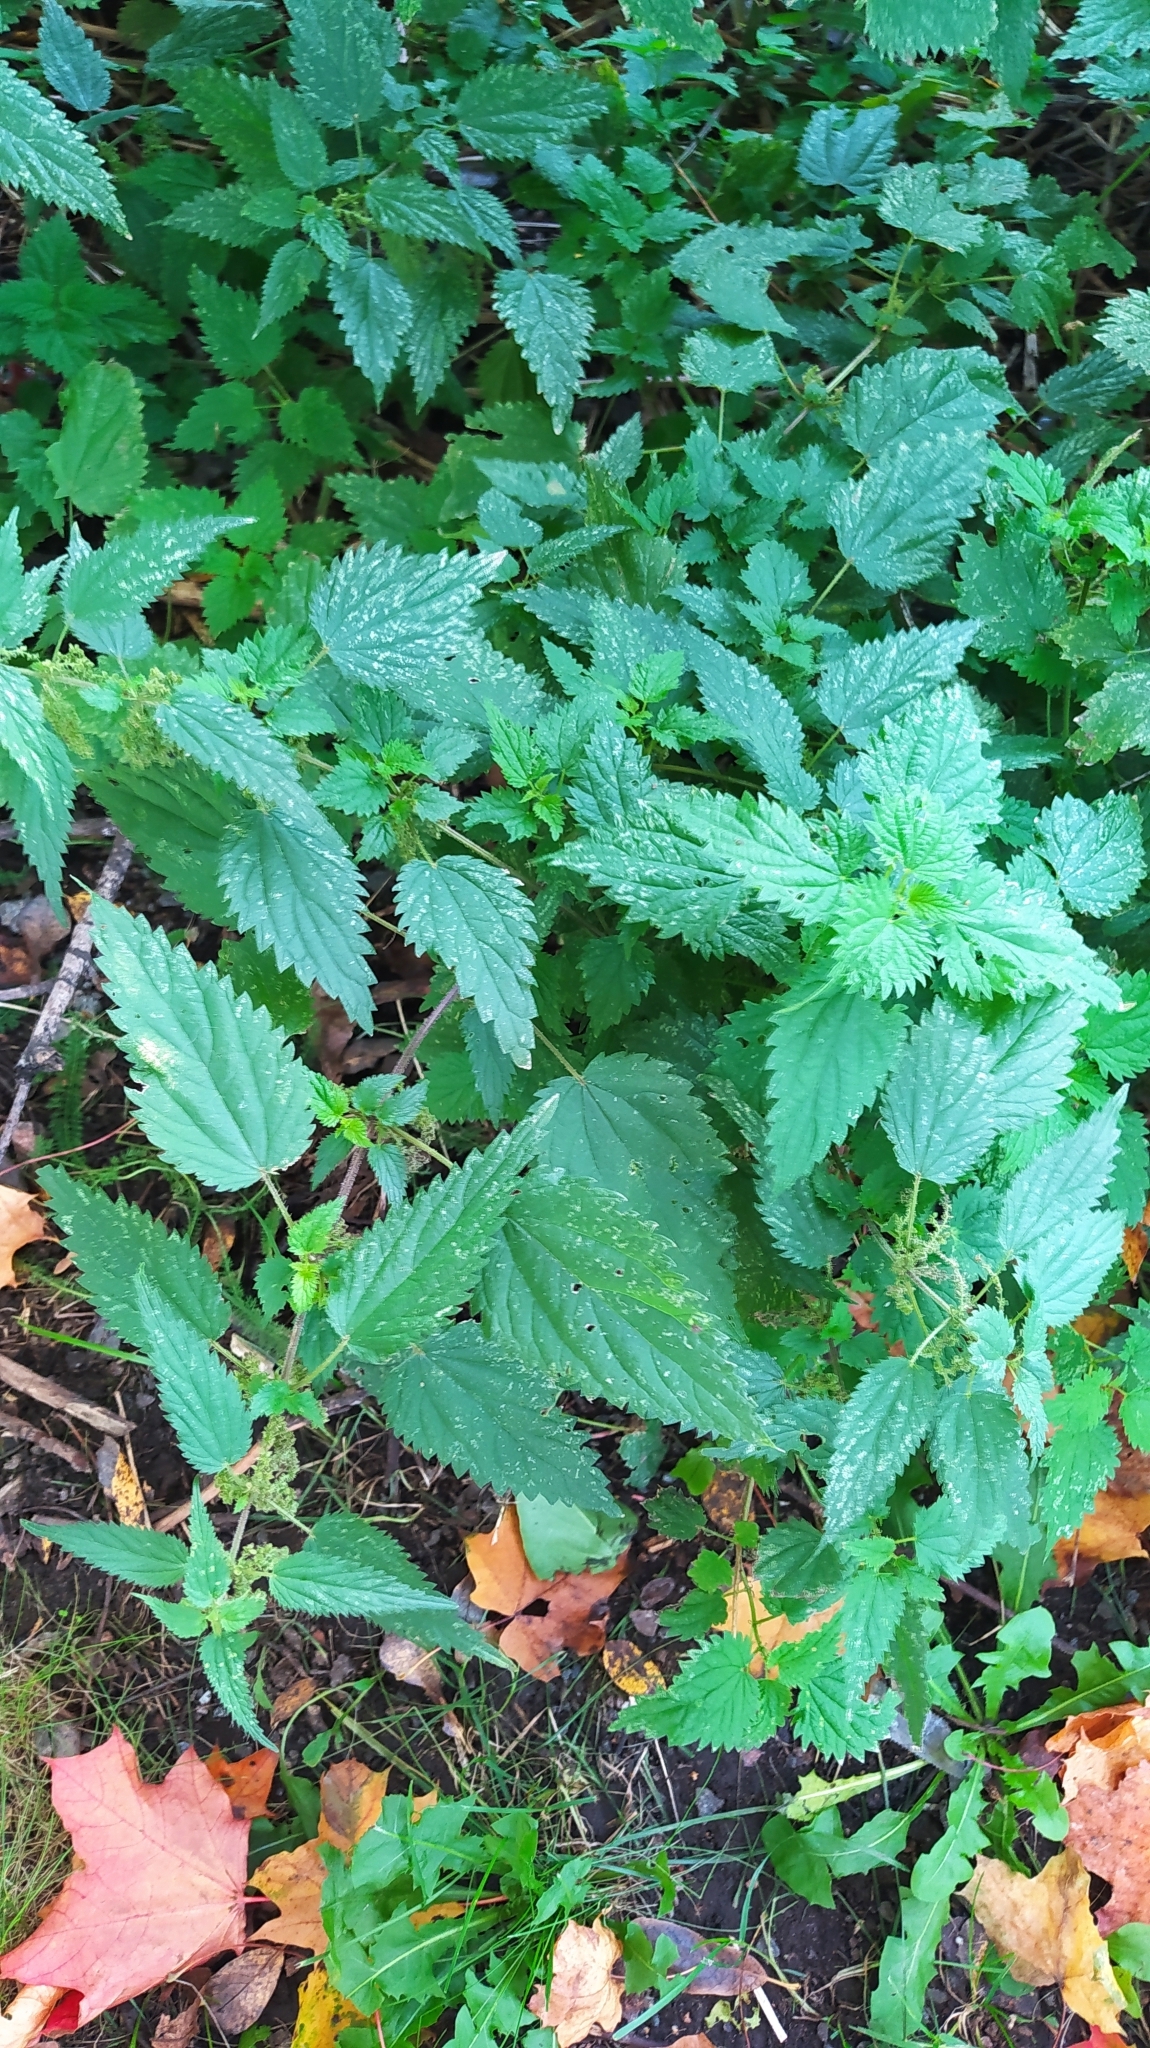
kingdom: Plantae
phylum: Tracheophyta
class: Magnoliopsida
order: Rosales
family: Urticaceae
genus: Urtica
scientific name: Urtica dioica
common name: Common nettle
